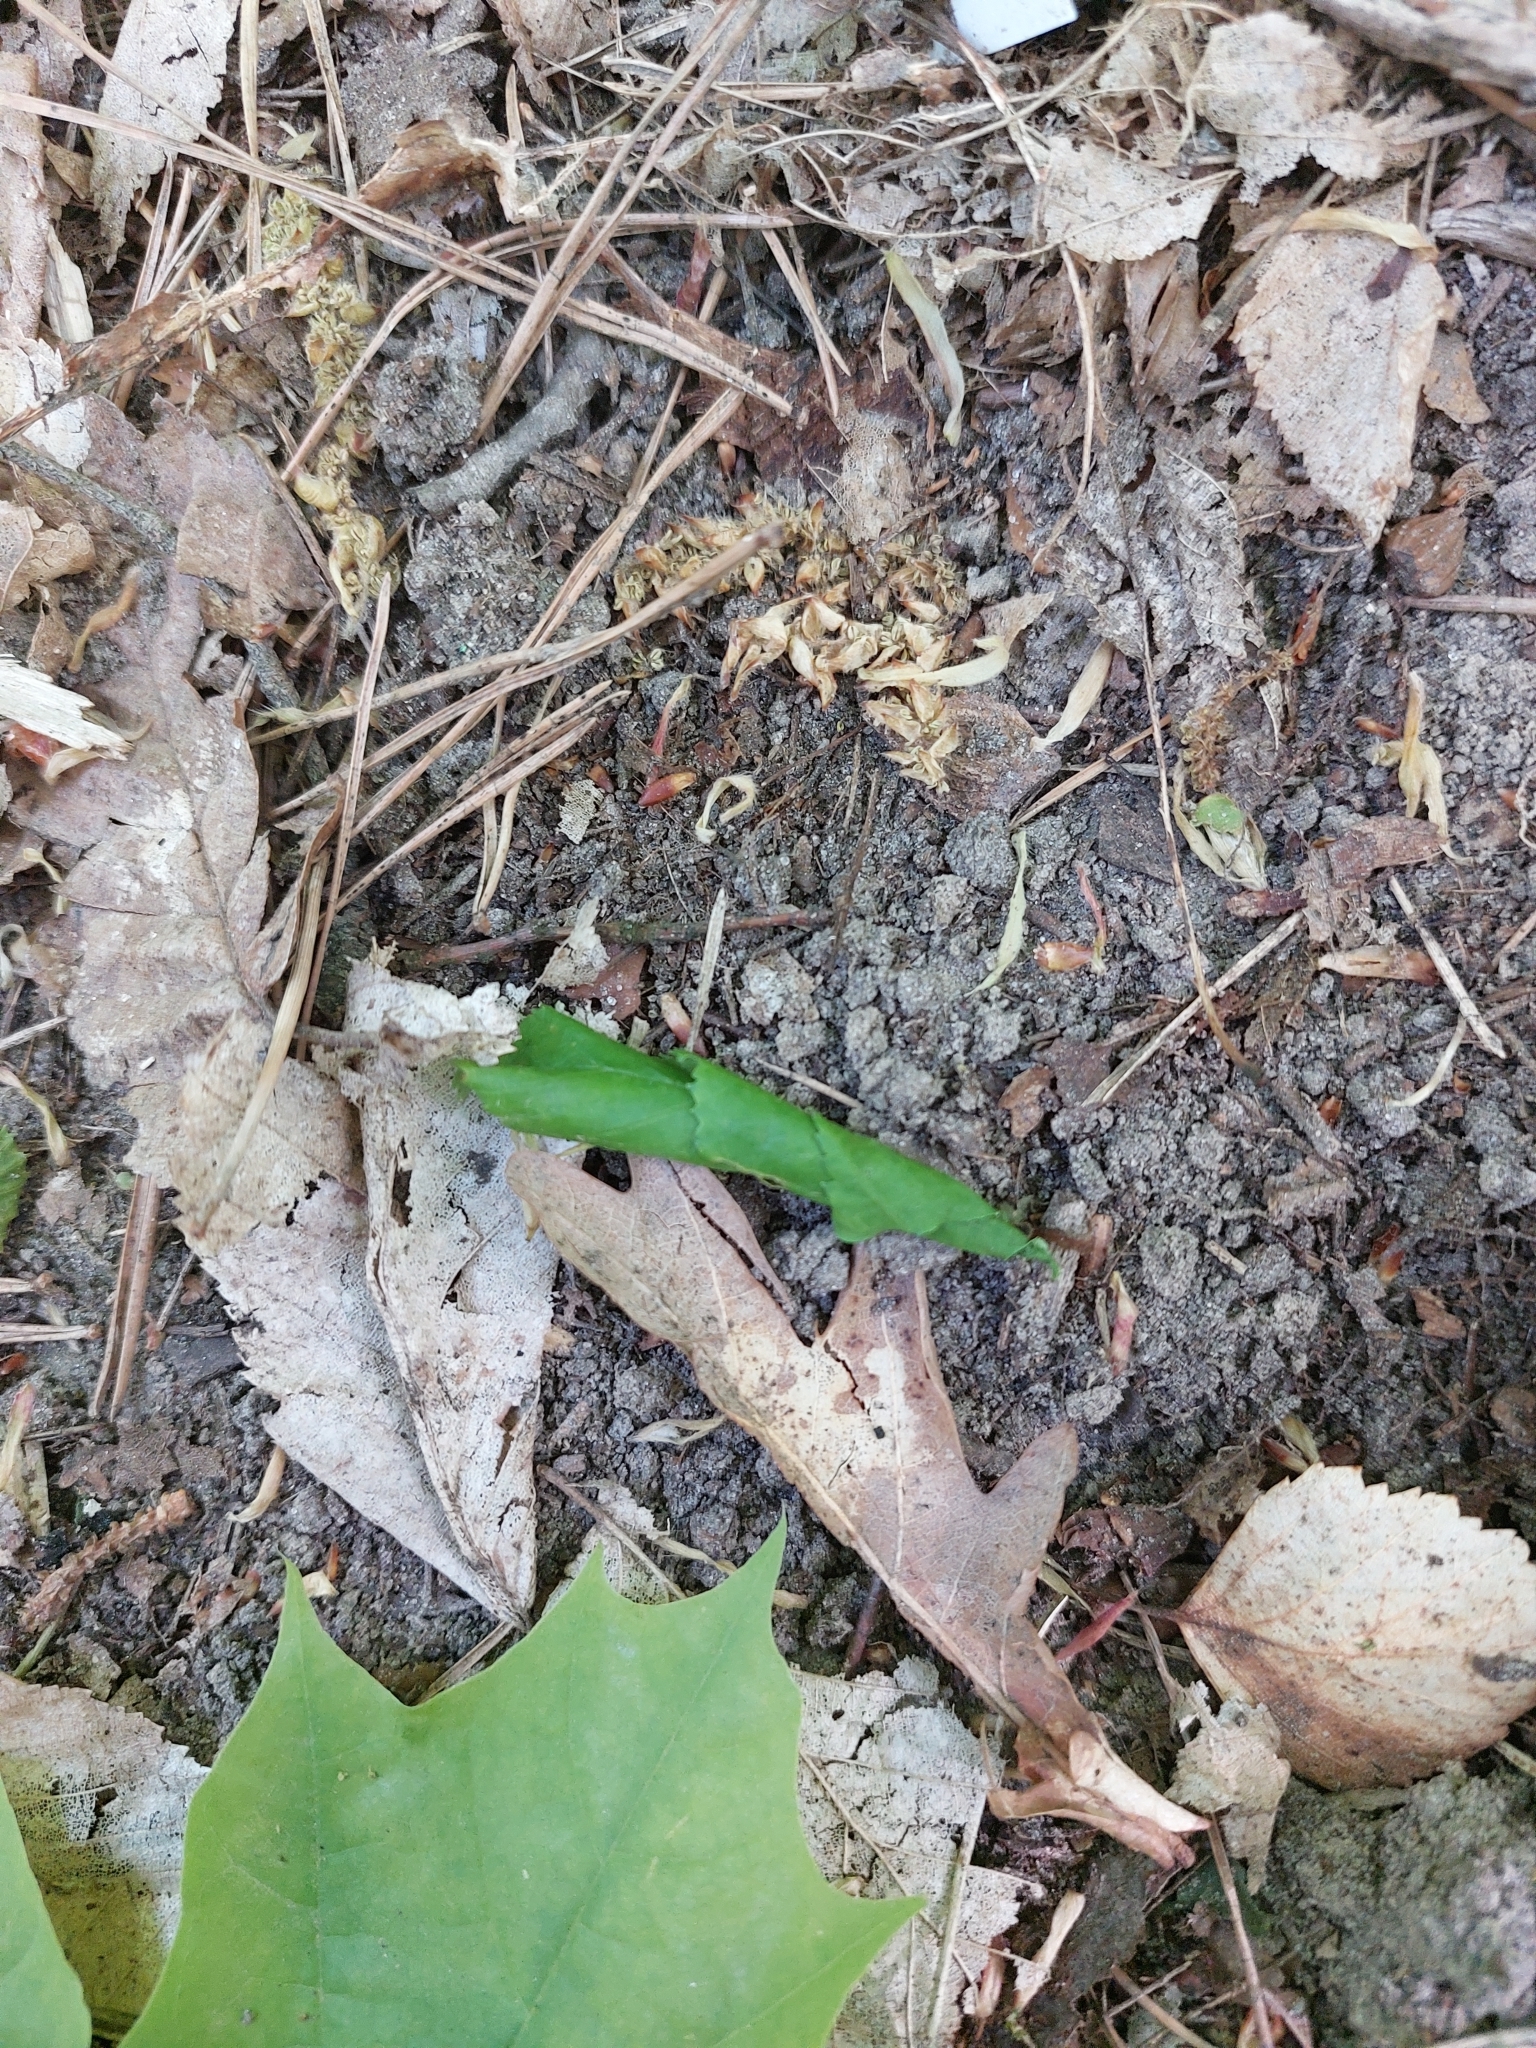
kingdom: Animalia
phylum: Arthropoda
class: Insecta
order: Coleoptera
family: Attelabidae
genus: Deporaus
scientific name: Deporaus betulae
